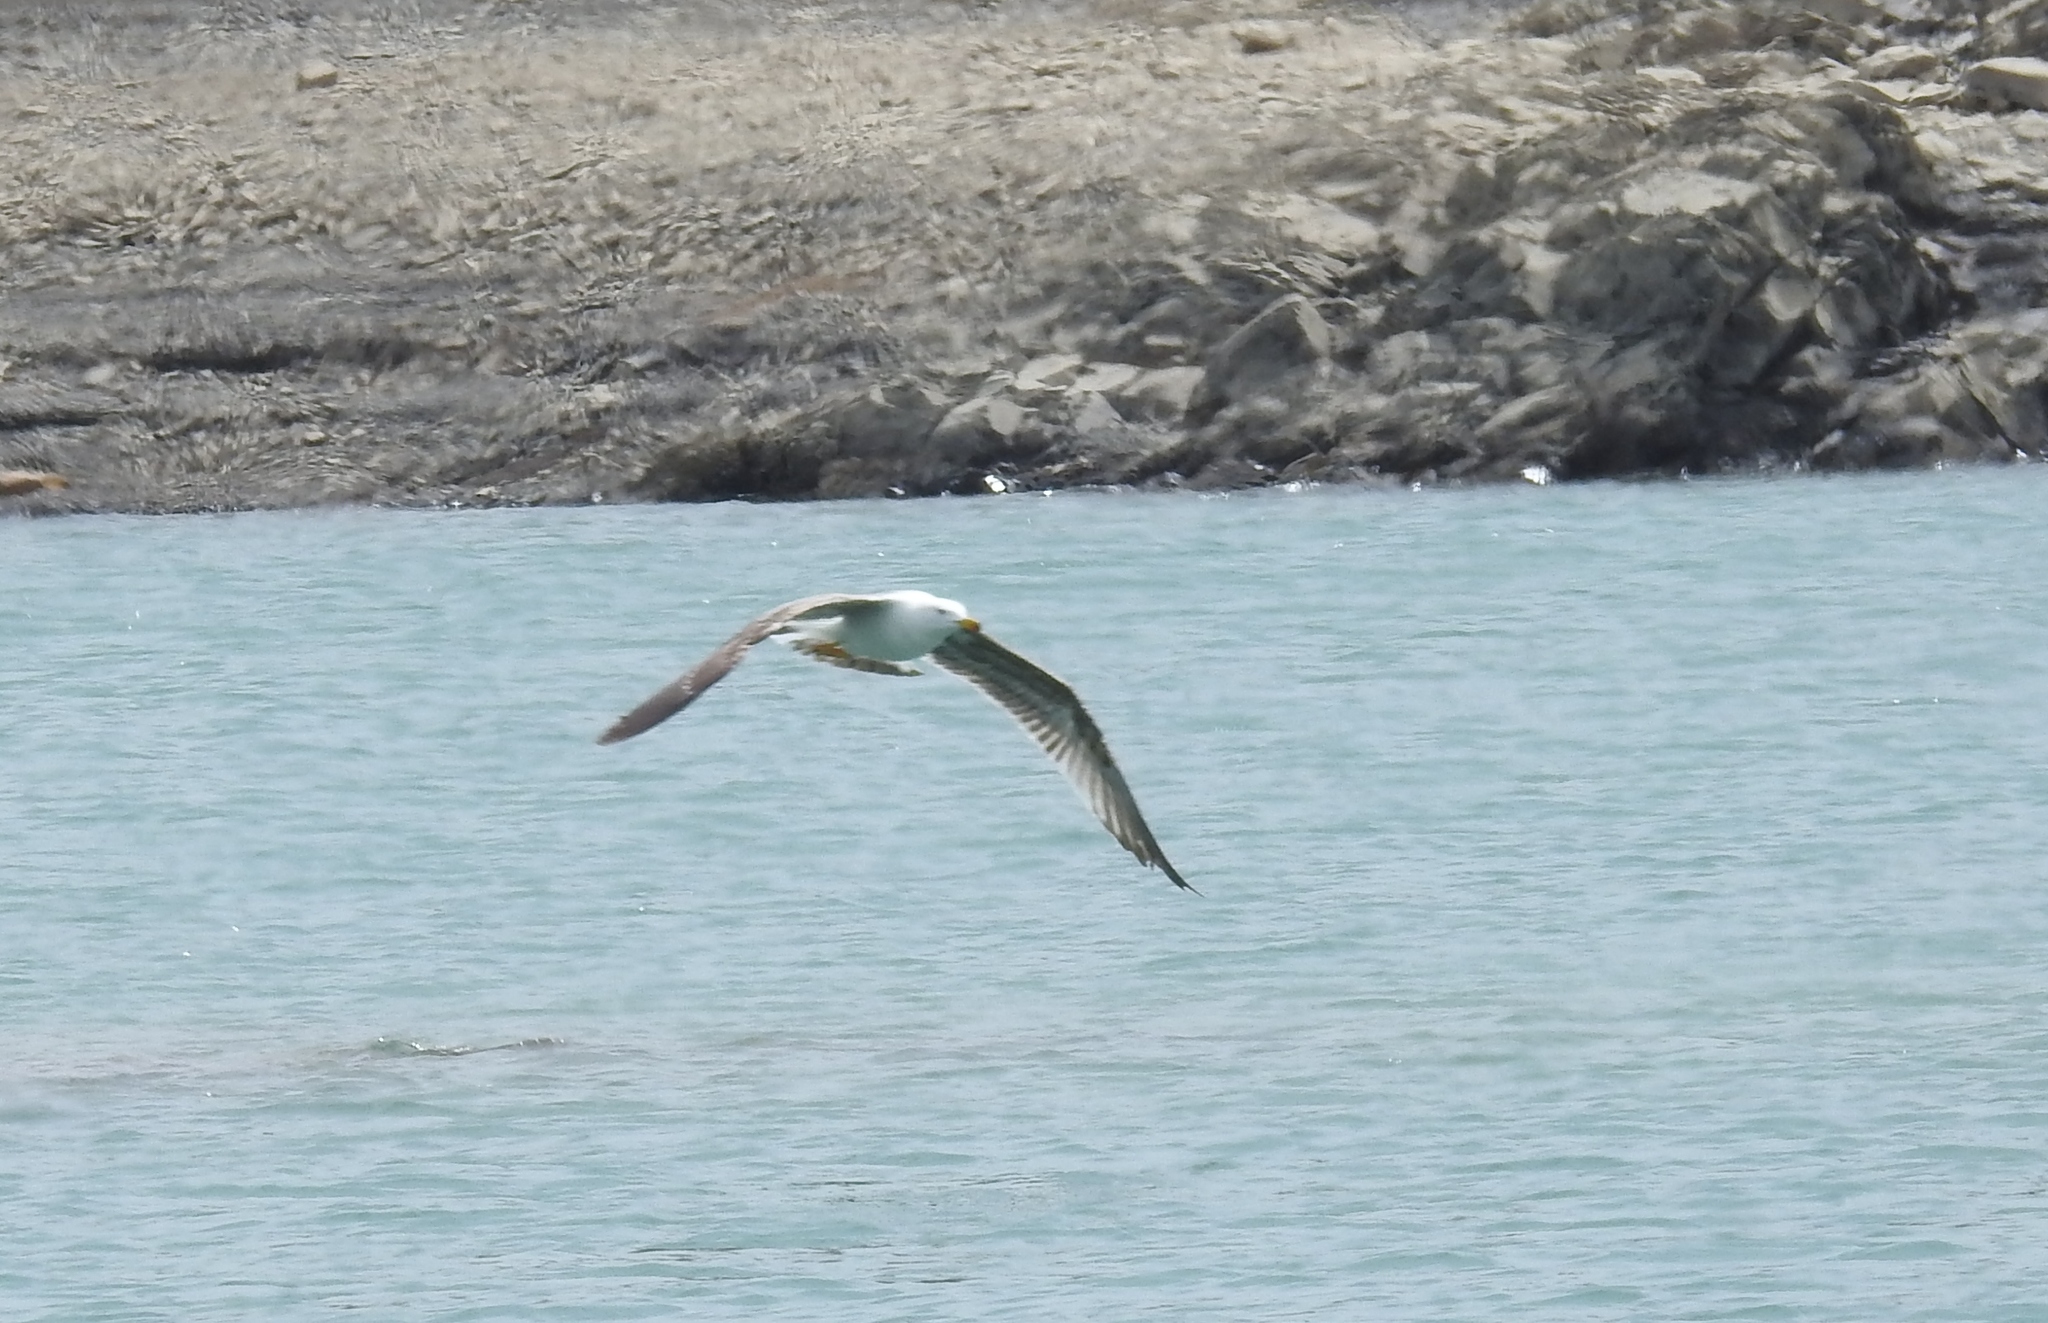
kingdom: Animalia
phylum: Chordata
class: Aves
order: Charadriiformes
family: Laridae
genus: Larus
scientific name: Larus michahellis
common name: Yellow-legged gull
